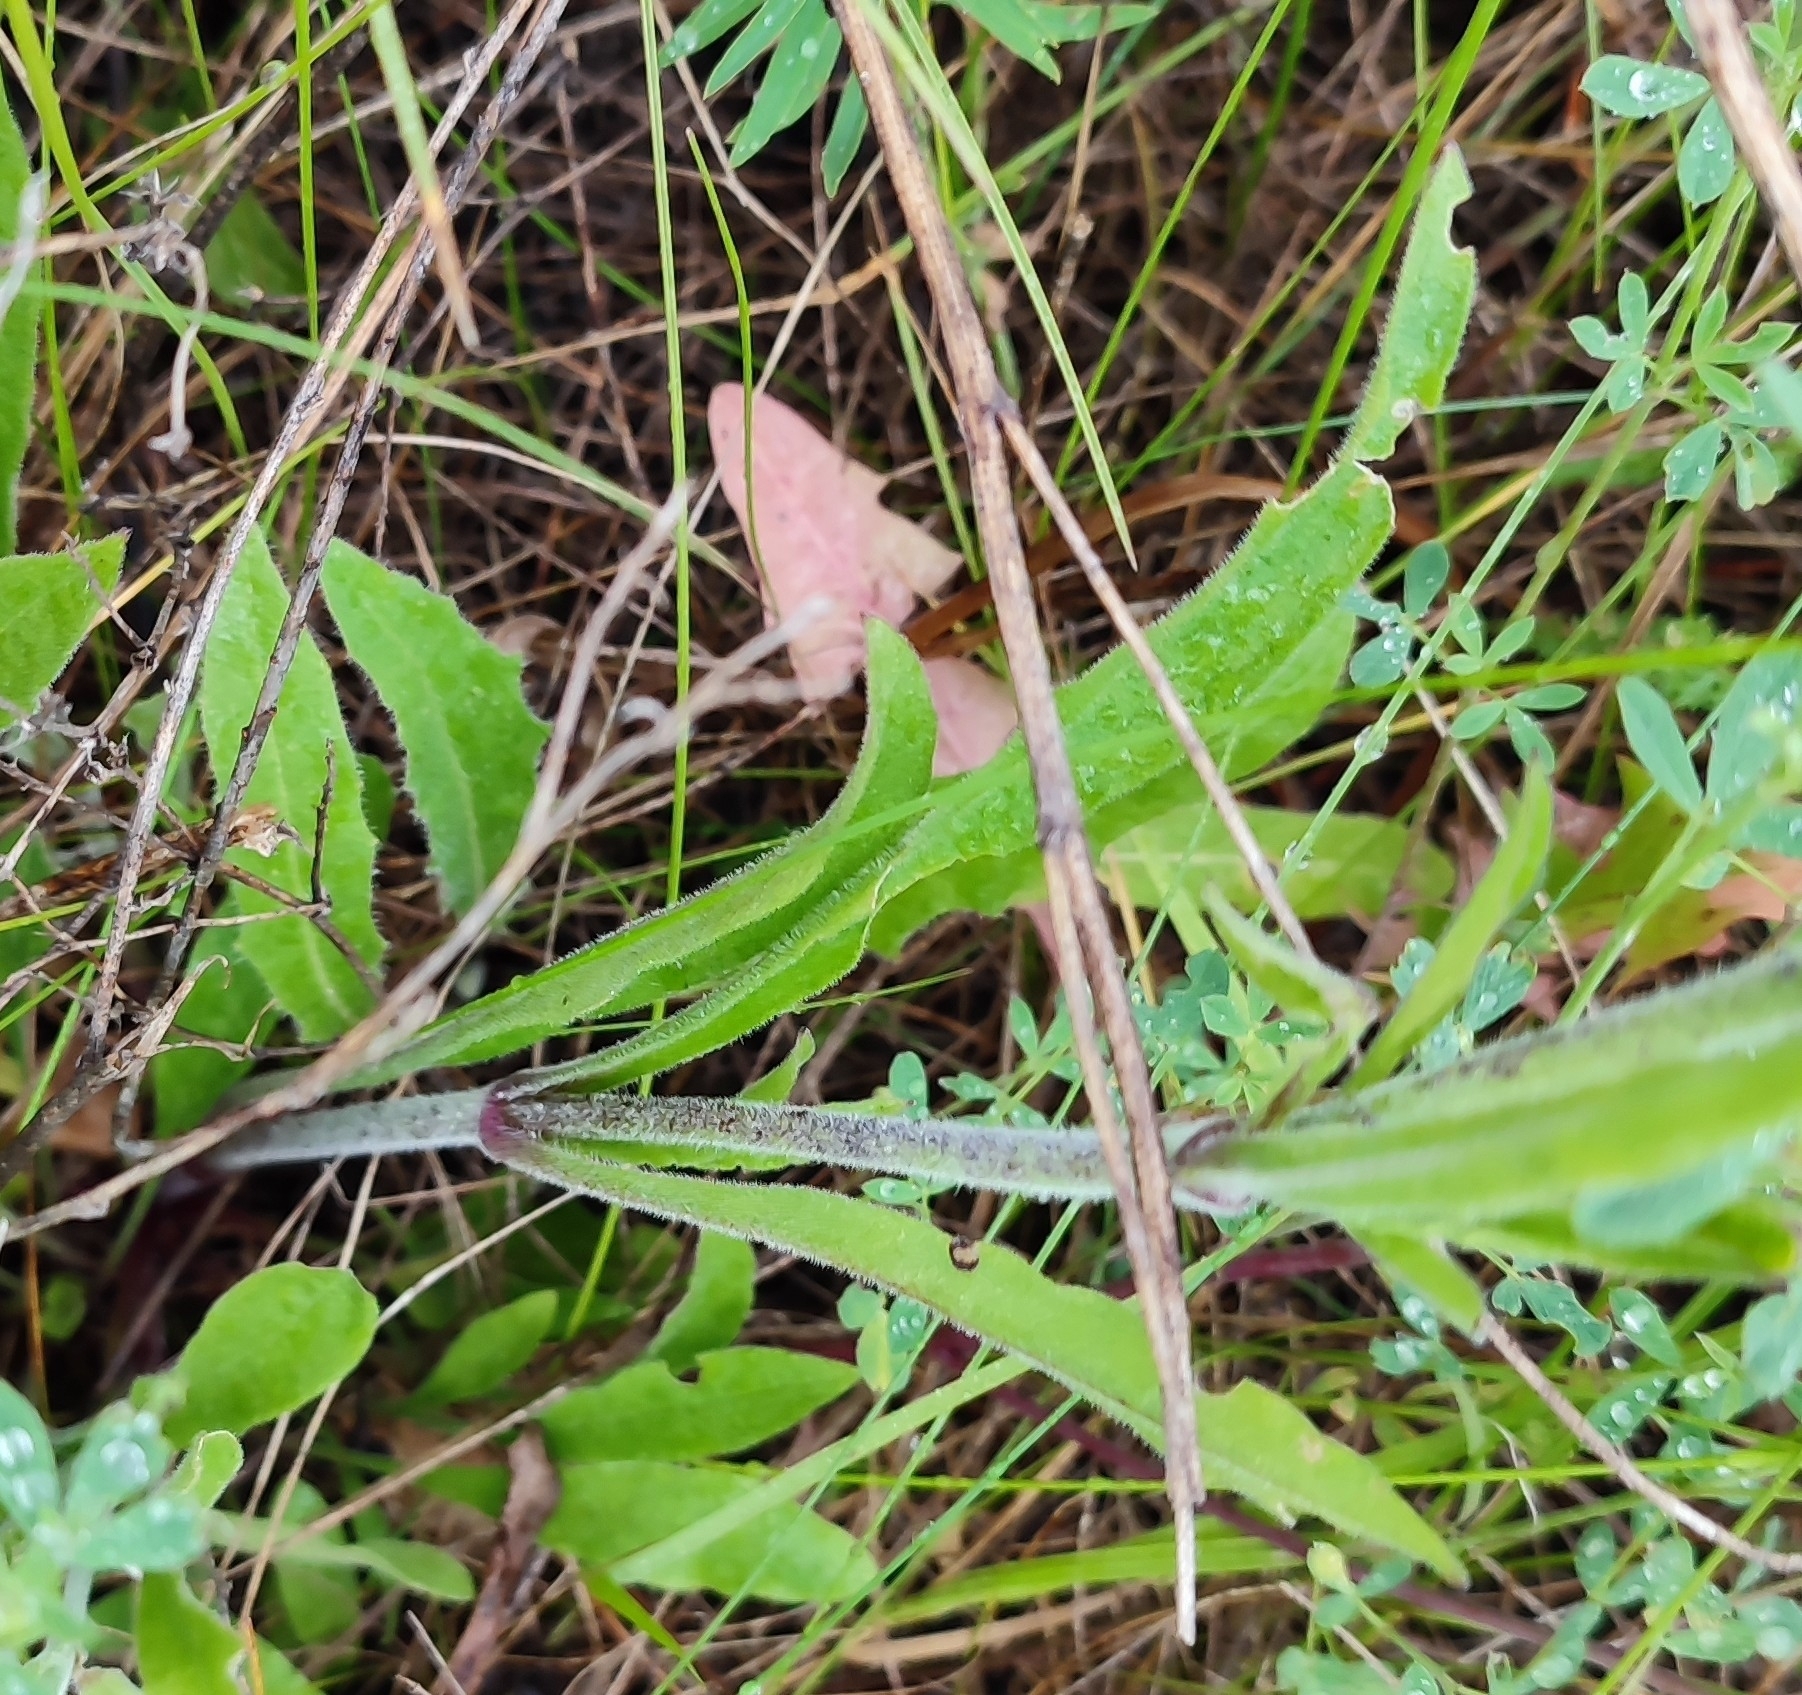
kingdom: Plantae
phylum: Tracheophyta
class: Magnoliopsida
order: Caryophyllales
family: Caryophyllaceae
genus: Silene
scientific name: Silene nutans
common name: Nottingham catchfly
